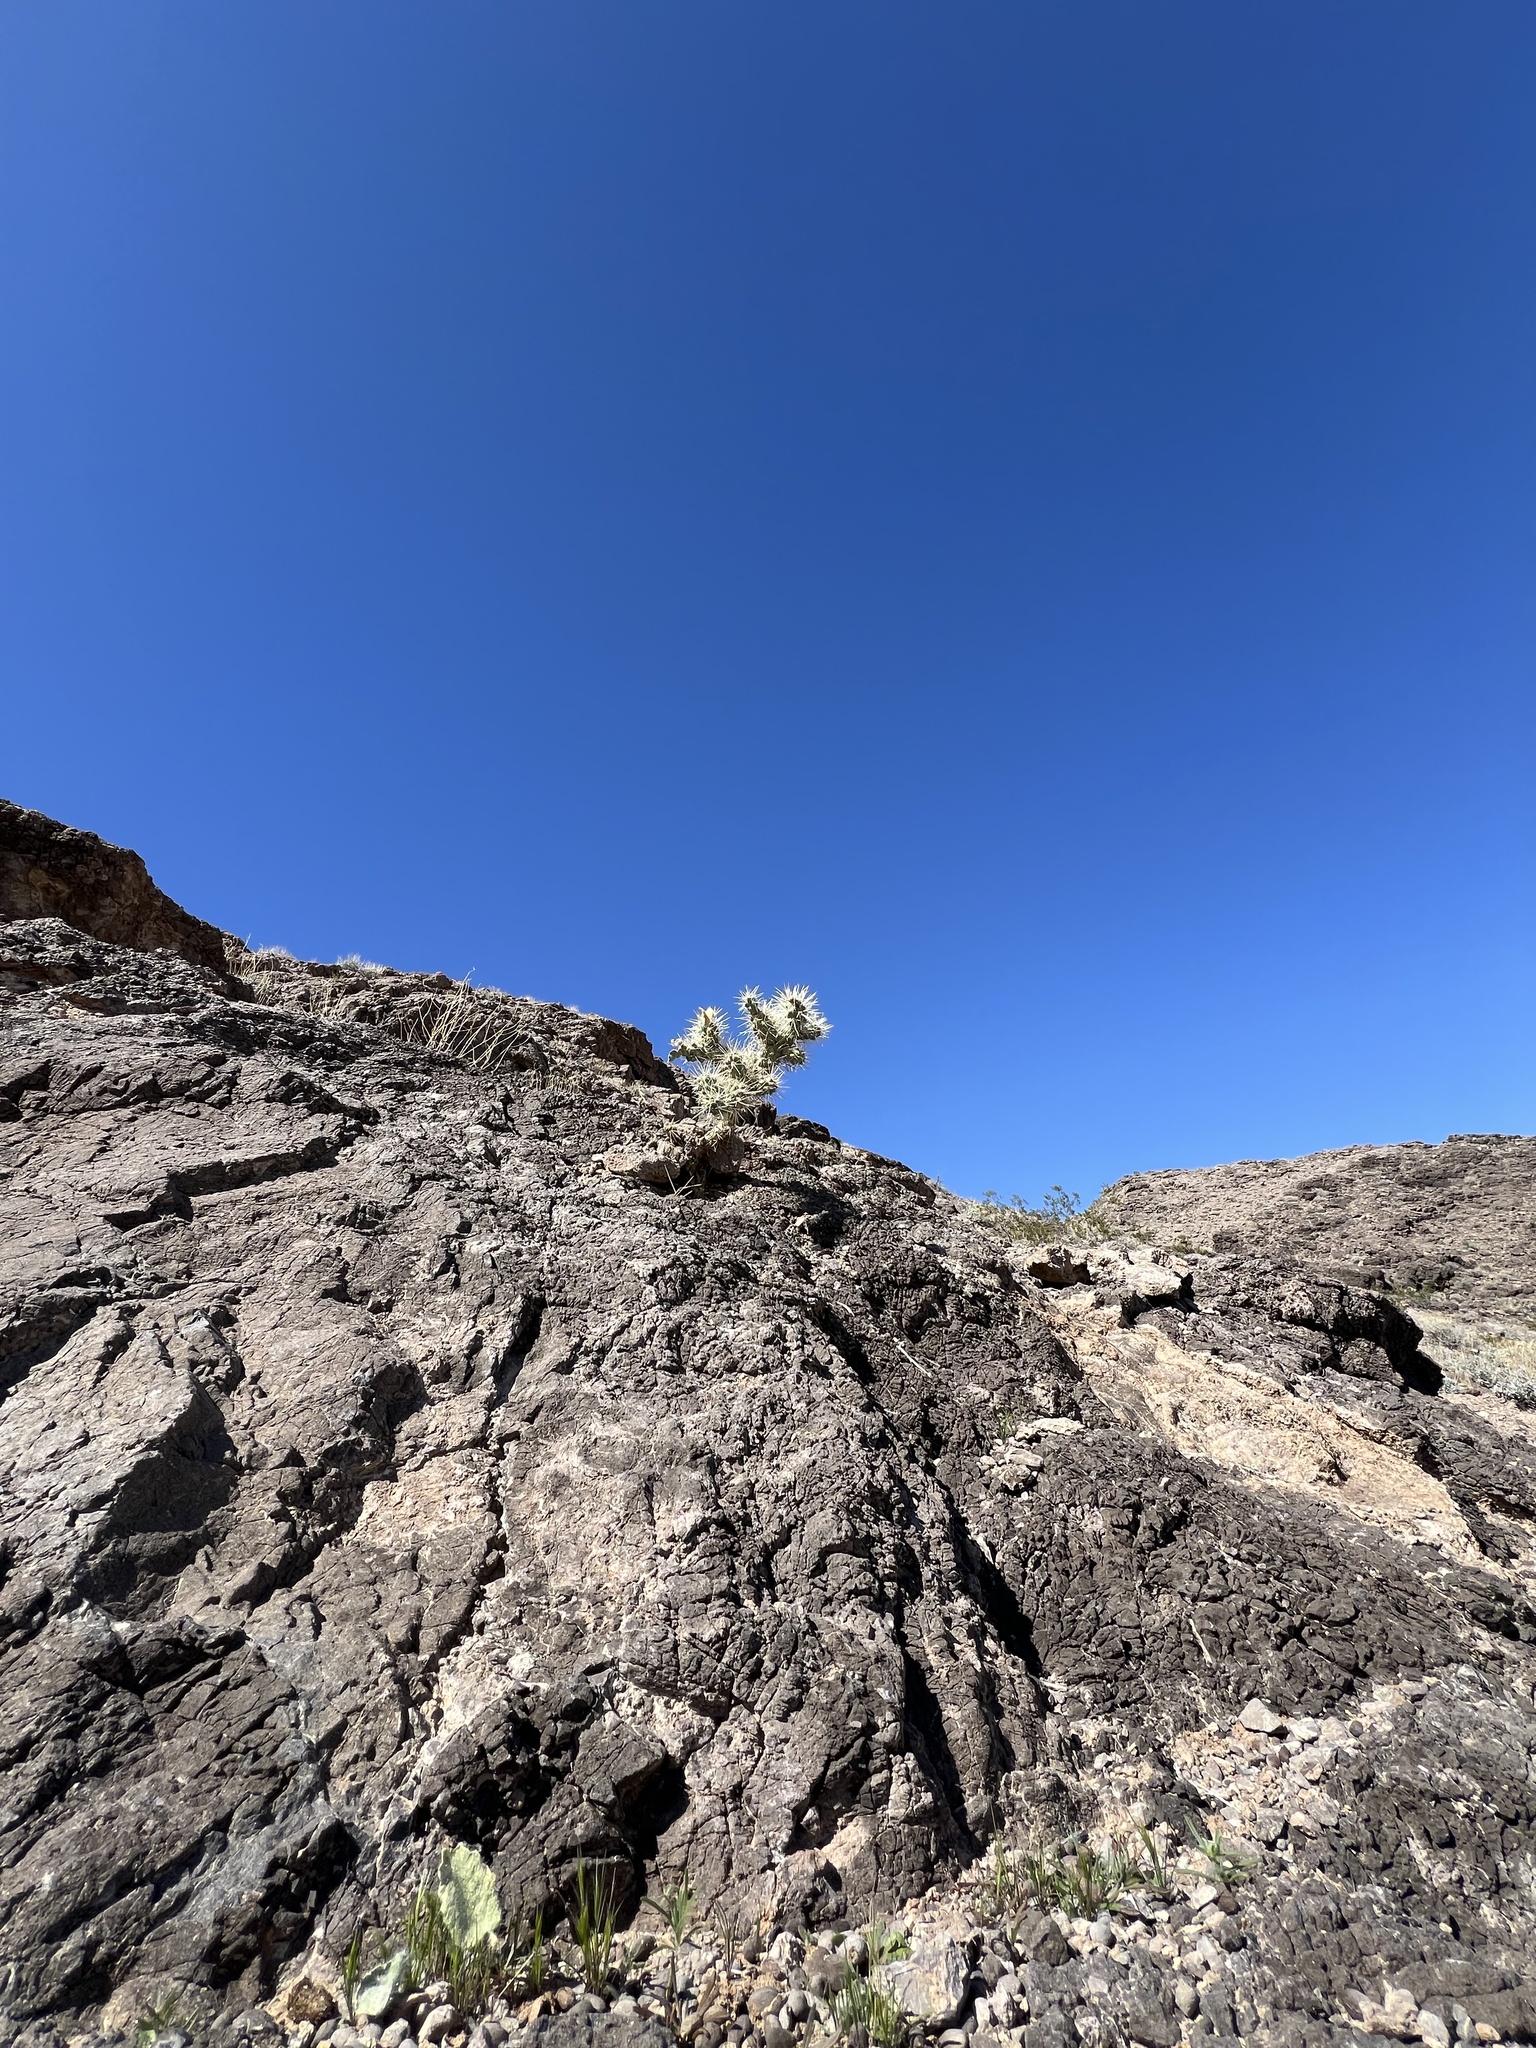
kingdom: Plantae
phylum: Tracheophyta
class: Magnoliopsida
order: Caryophyllales
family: Cactaceae
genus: Cylindropuntia
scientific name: Cylindropuntia echinocarpa
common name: Ground cholla
